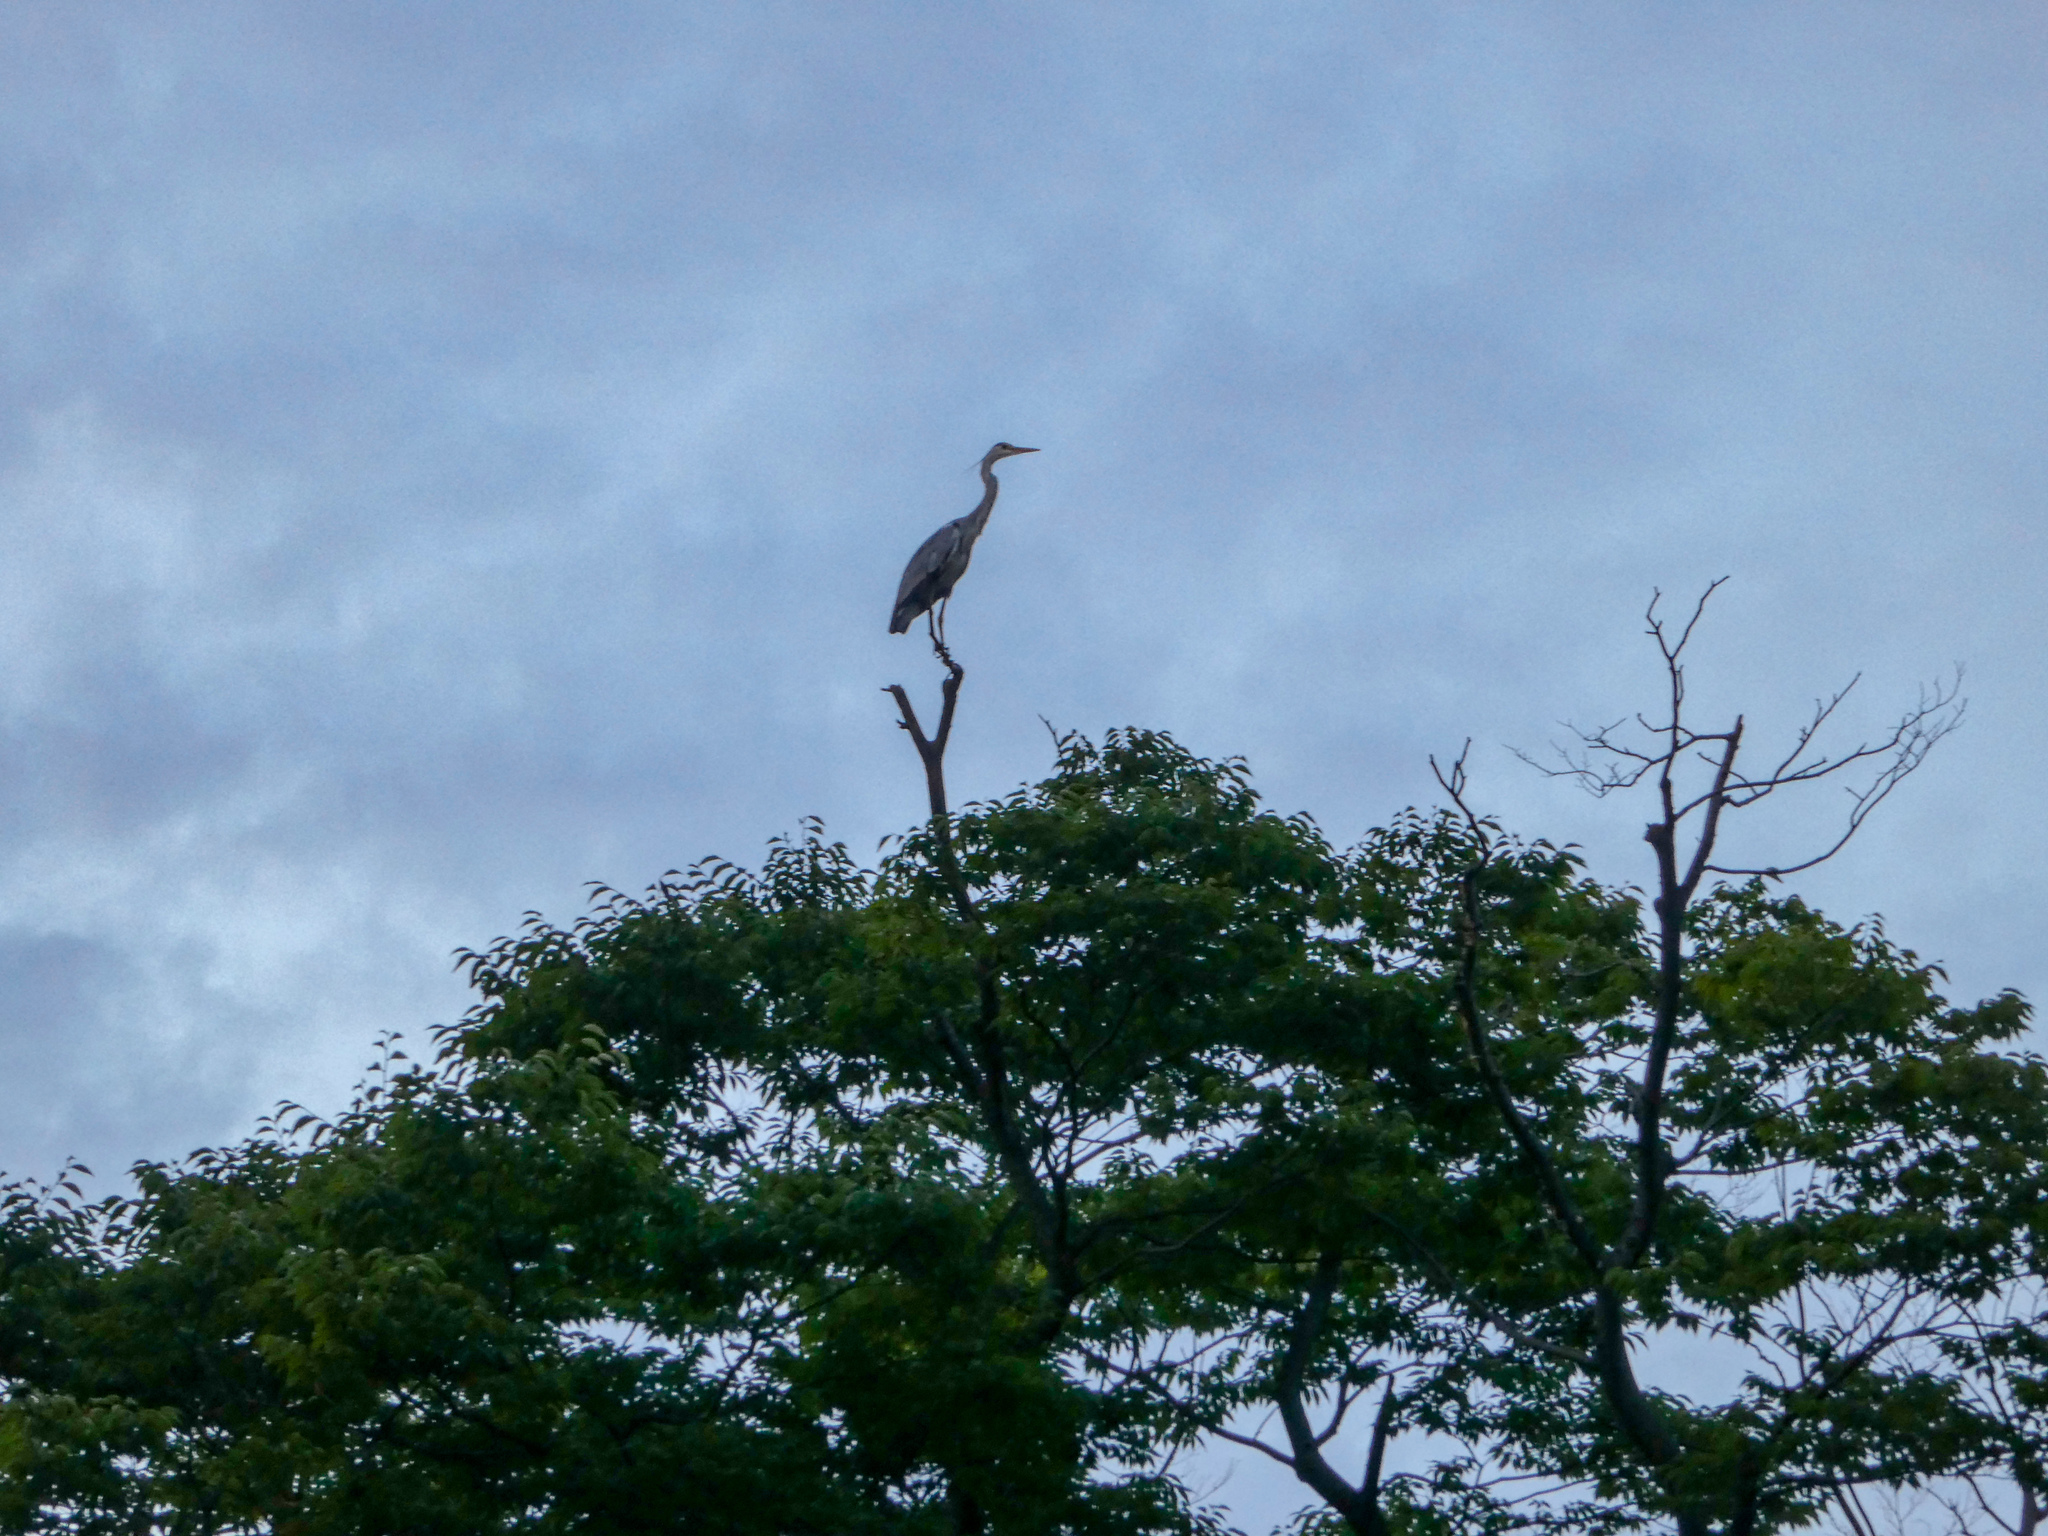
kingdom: Animalia
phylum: Chordata
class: Aves
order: Pelecaniformes
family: Ardeidae
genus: Ardea
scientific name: Ardea cinerea
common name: Grey heron
